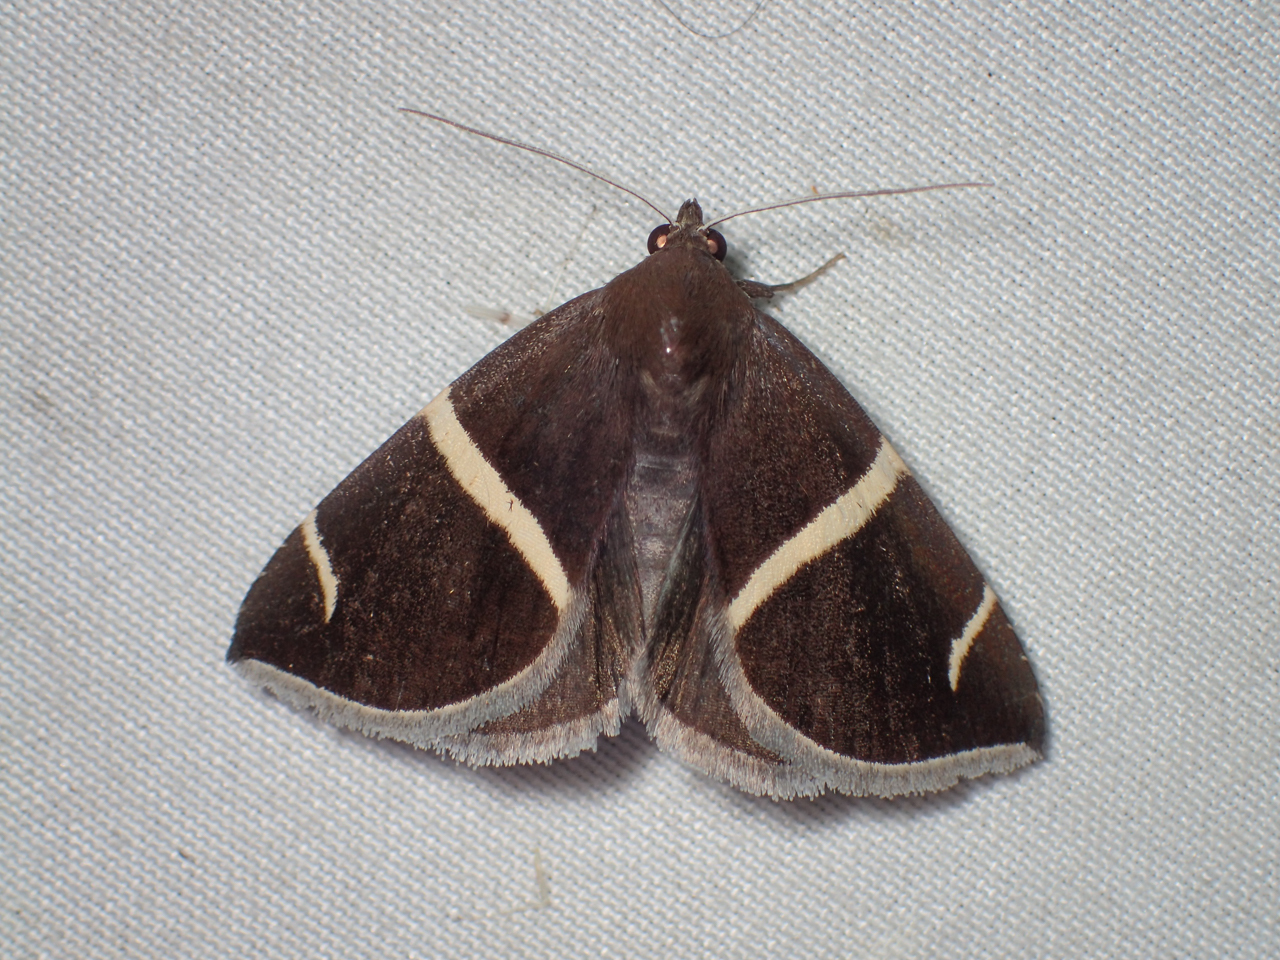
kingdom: Animalia
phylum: Arthropoda
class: Insecta
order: Lepidoptera
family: Erebidae
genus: Argyrostrotis
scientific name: Argyrostrotis anilis
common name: Short-lined chocolate
